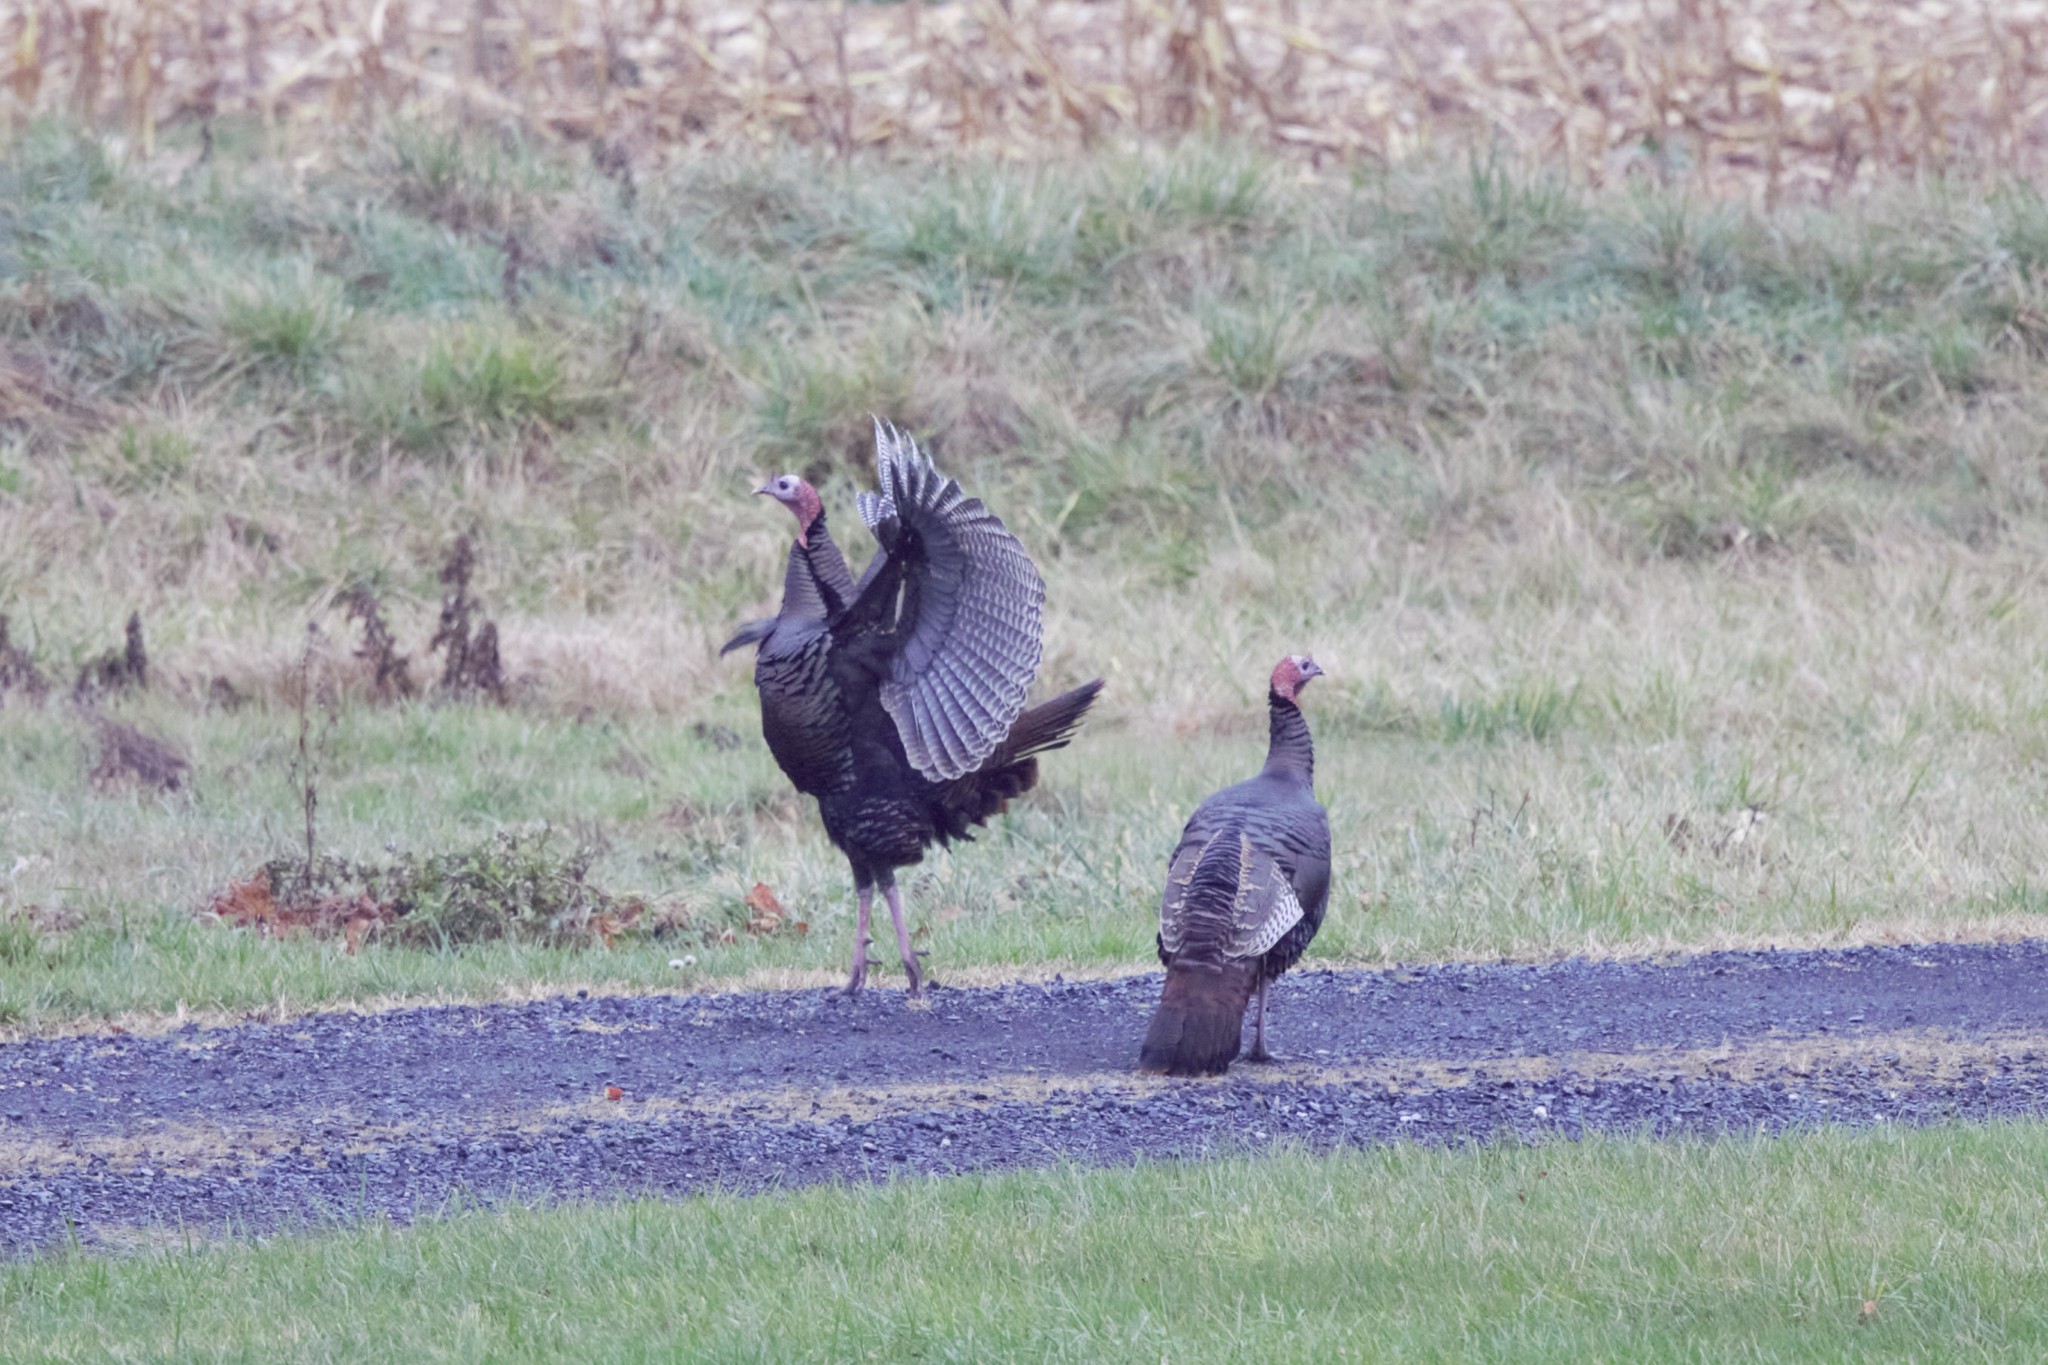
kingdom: Animalia
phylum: Chordata
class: Aves
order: Galliformes
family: Phasianidae
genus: Meleagris
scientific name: Meleagris gallopavo
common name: Wild turkey
